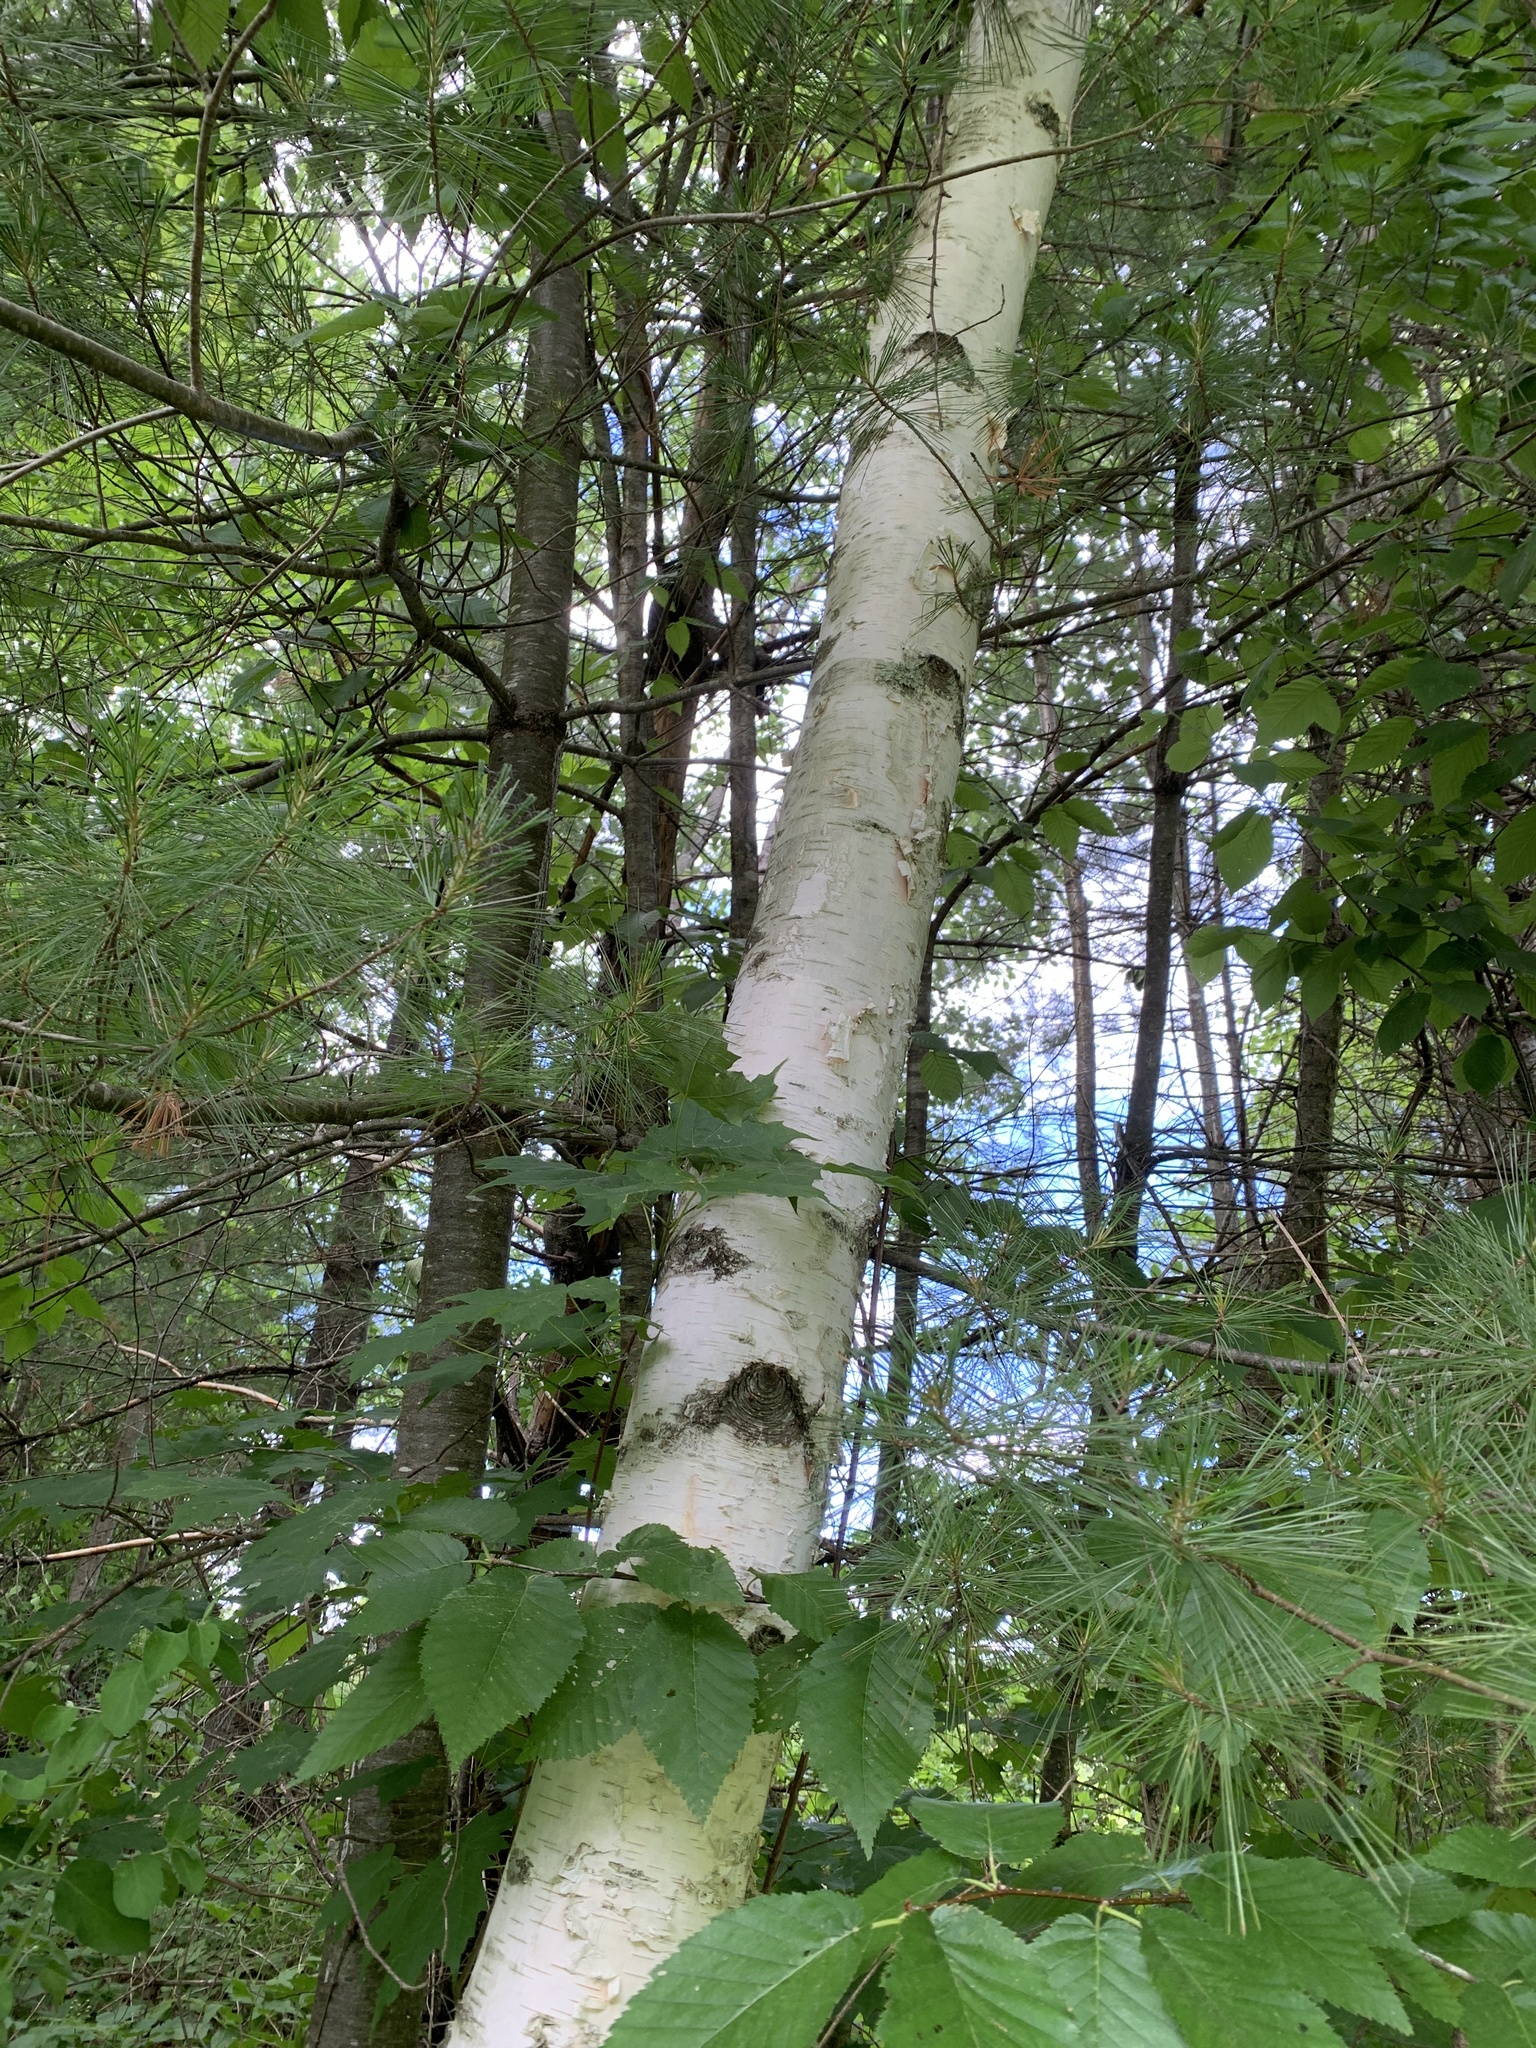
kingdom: Plantae
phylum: Tracheophyta
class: Magnoliopsida
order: Fagales
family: Betulaceae
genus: Betula
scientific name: Betula papyrifera
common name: Paper birch
